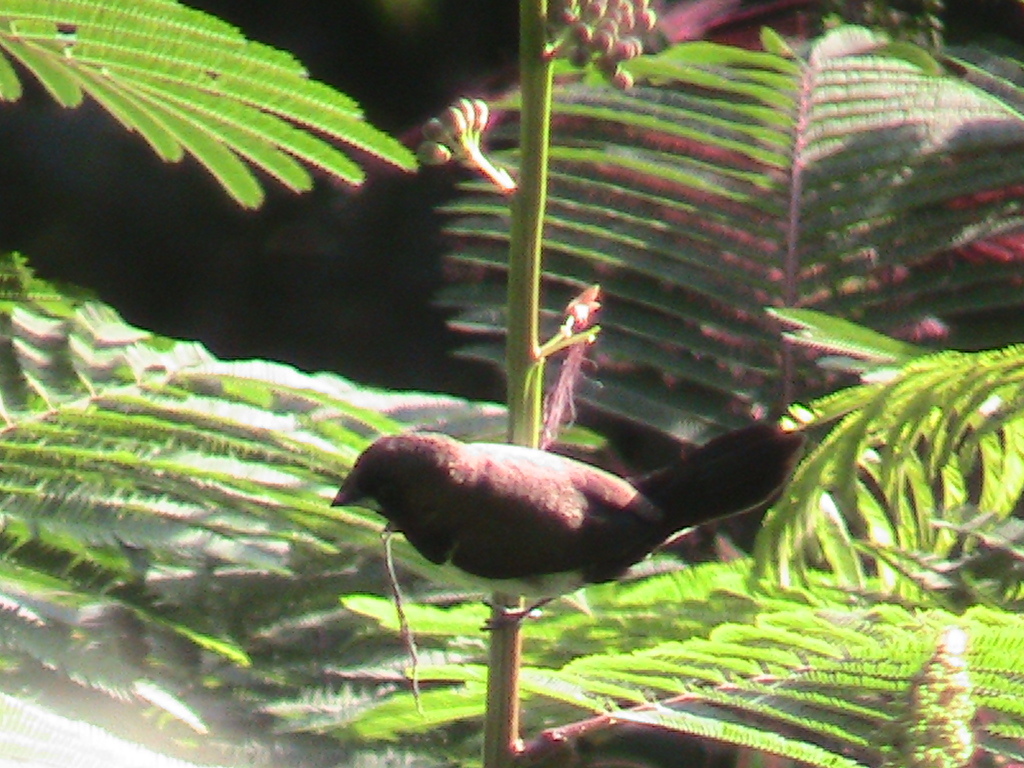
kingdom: Animalia
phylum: Chordata
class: Aves
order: Passeriformes
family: Estrildidae
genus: Lonchura
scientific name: Lonchura leucogastroides
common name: Javan munia
